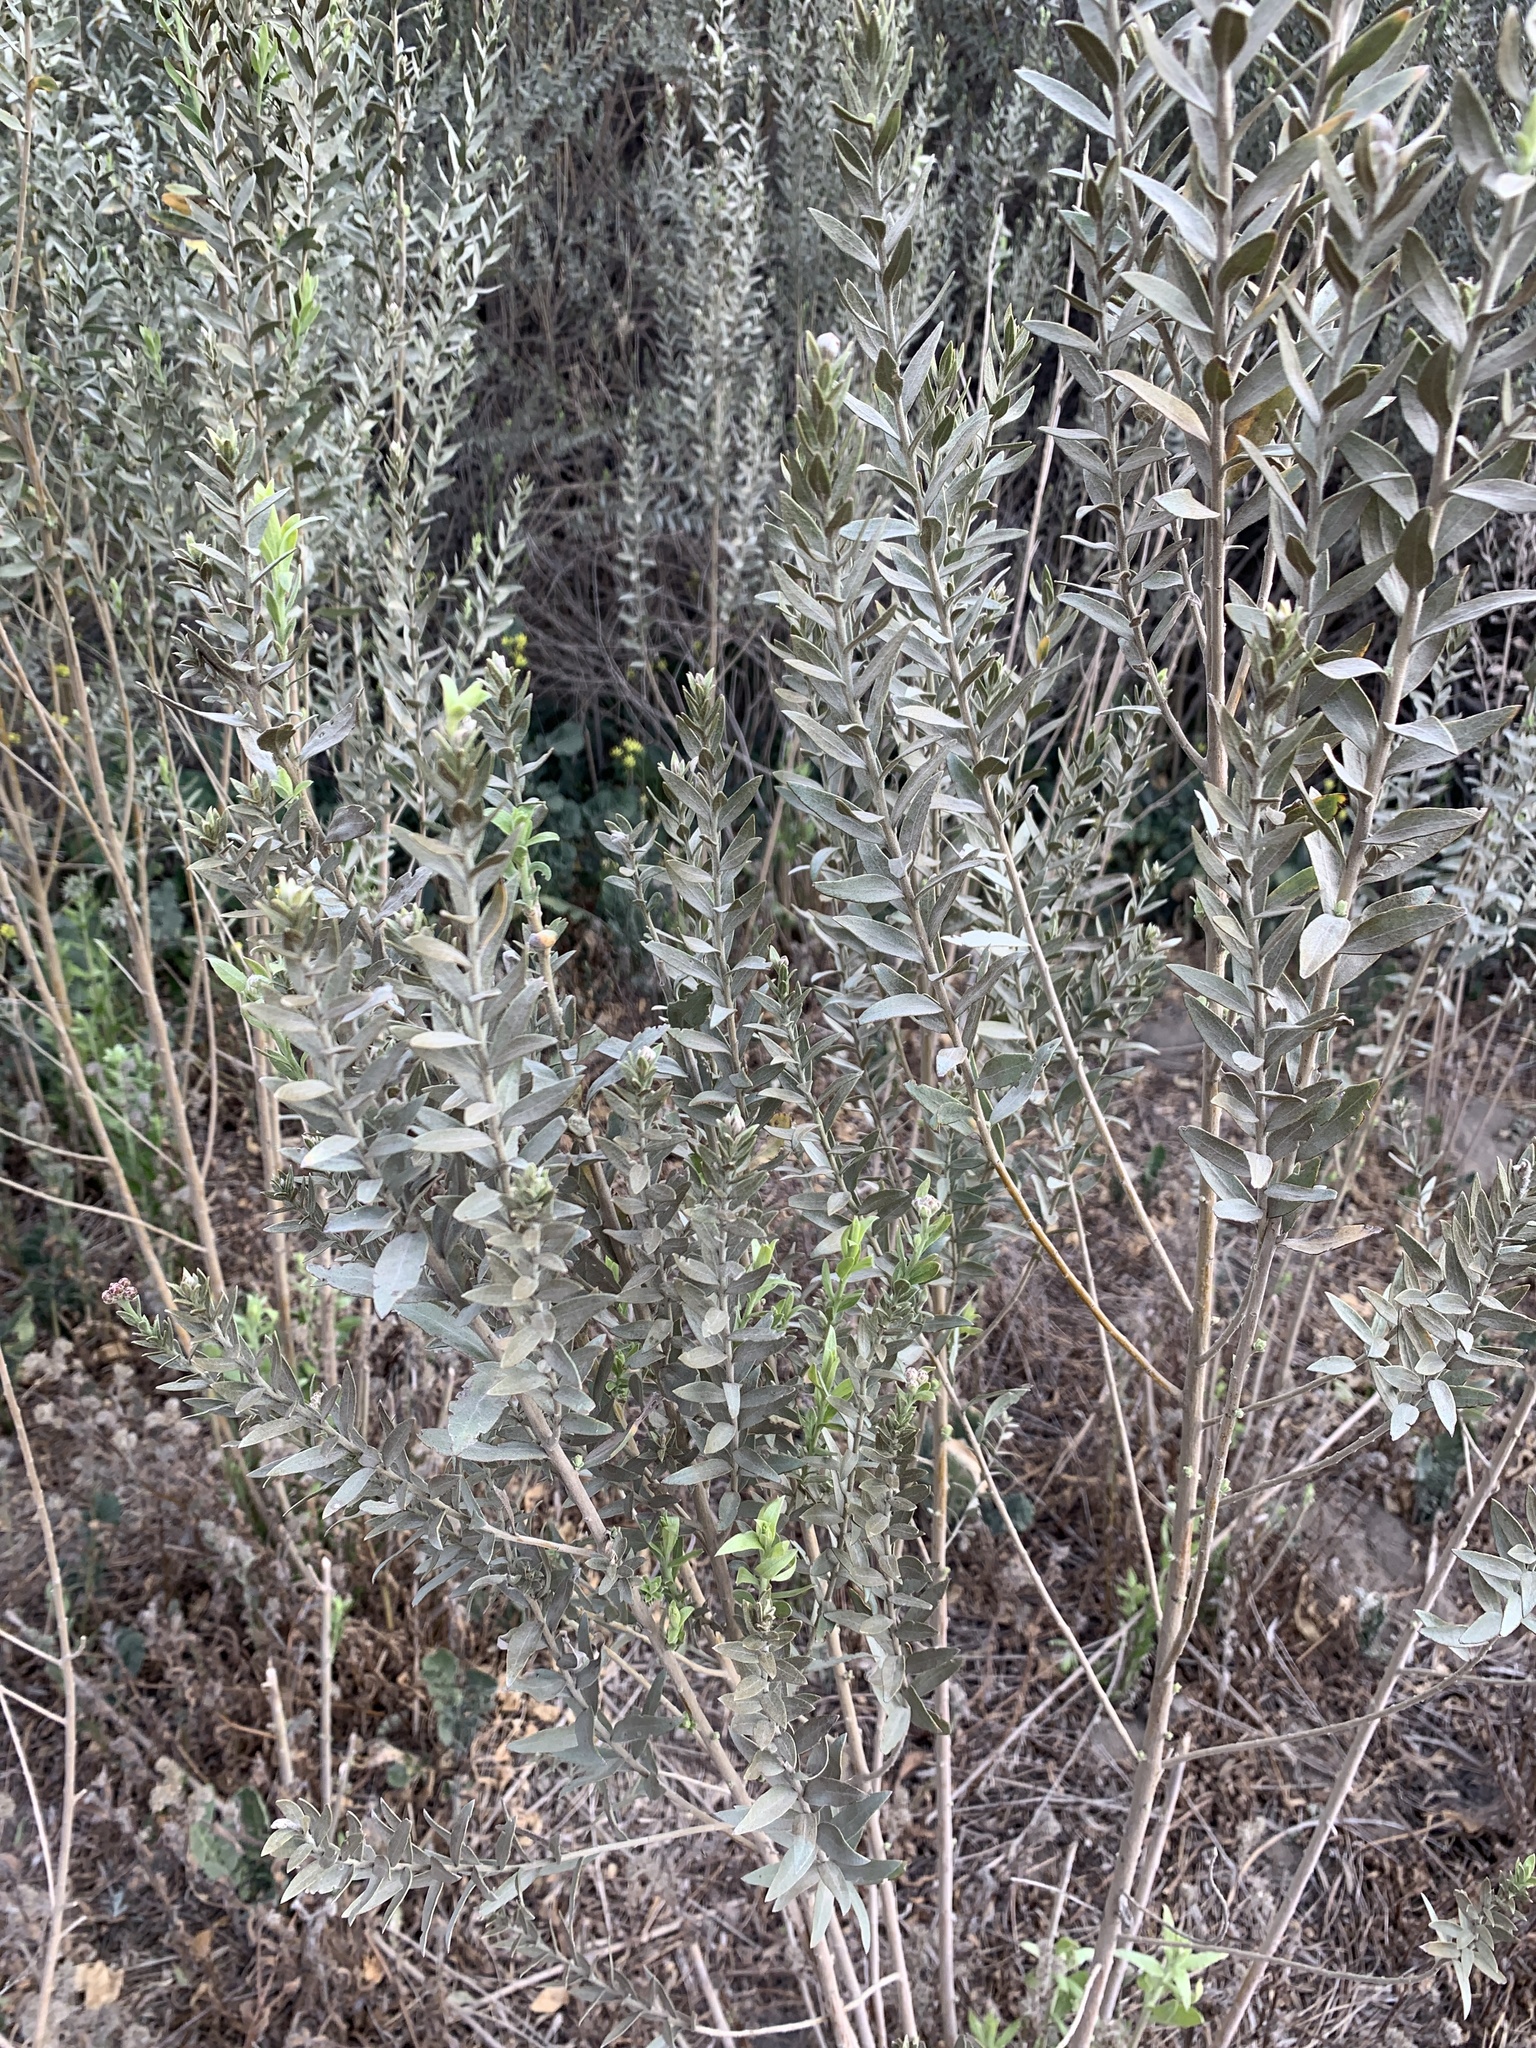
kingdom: Plantae
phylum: Tracheophyta
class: Magnoliopsida
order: Asterales
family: Asteraceae
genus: Pluchea
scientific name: Pluchea sericea
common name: Arrow-weed
